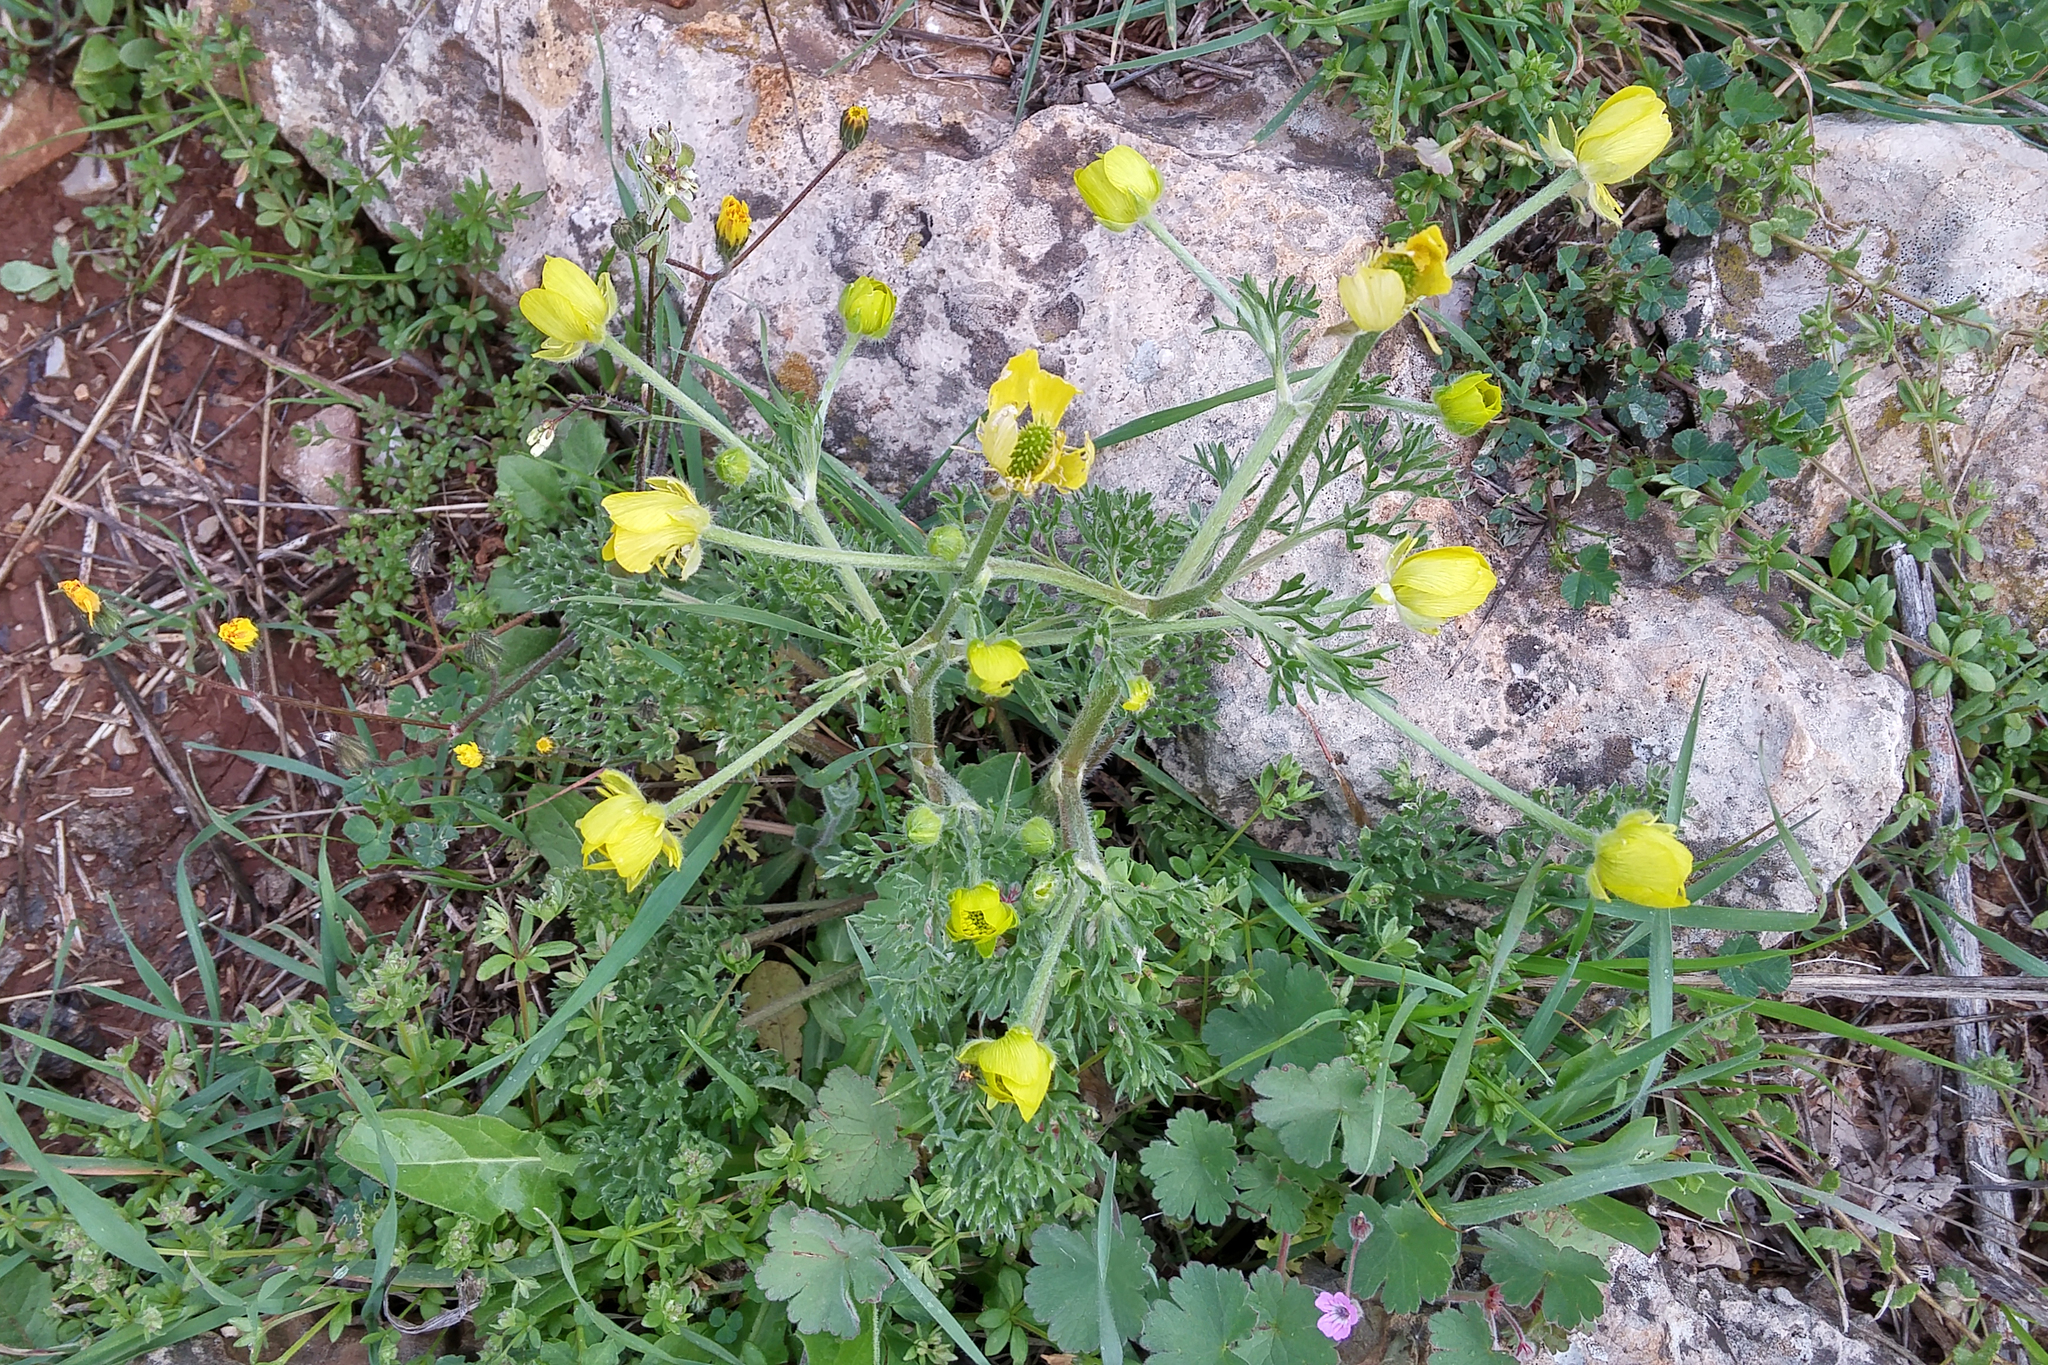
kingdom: Plantae
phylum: Tracheophyta
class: Magnoliopsida
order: Ranunculales
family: Ranunculaceae
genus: Ranunculus
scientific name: Ranunculus millefolius
